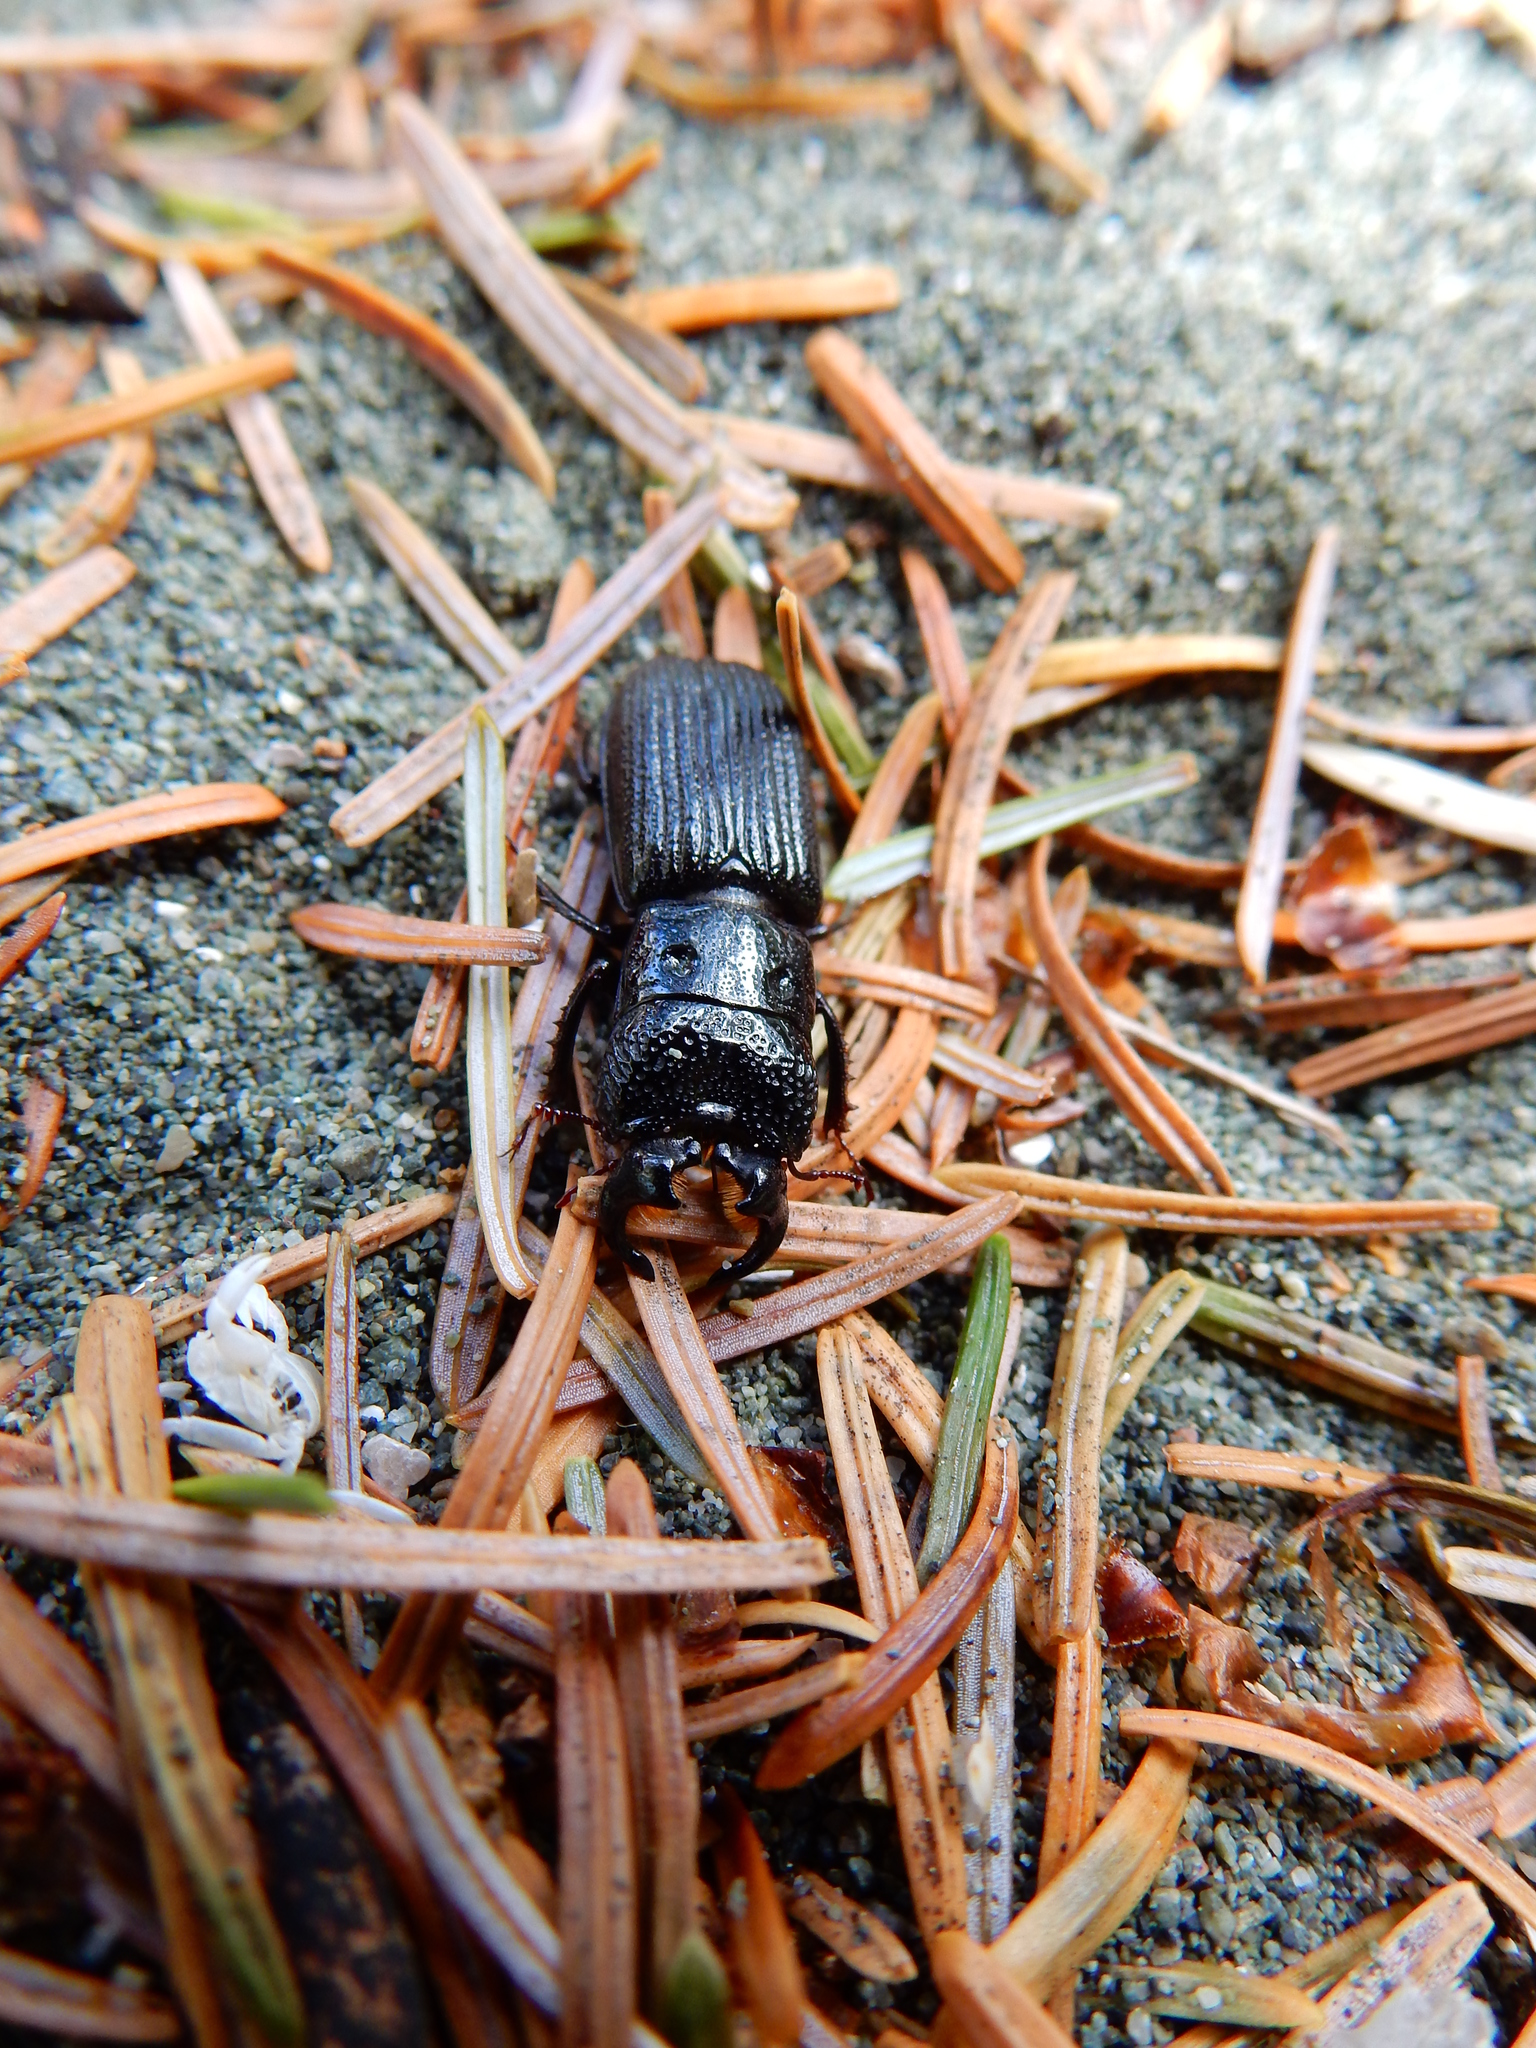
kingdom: Animalia
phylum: Arthropoda
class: Insecta
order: Coleoptera
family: Lucanidae
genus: Ceruchus
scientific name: Ceruchus striatus
